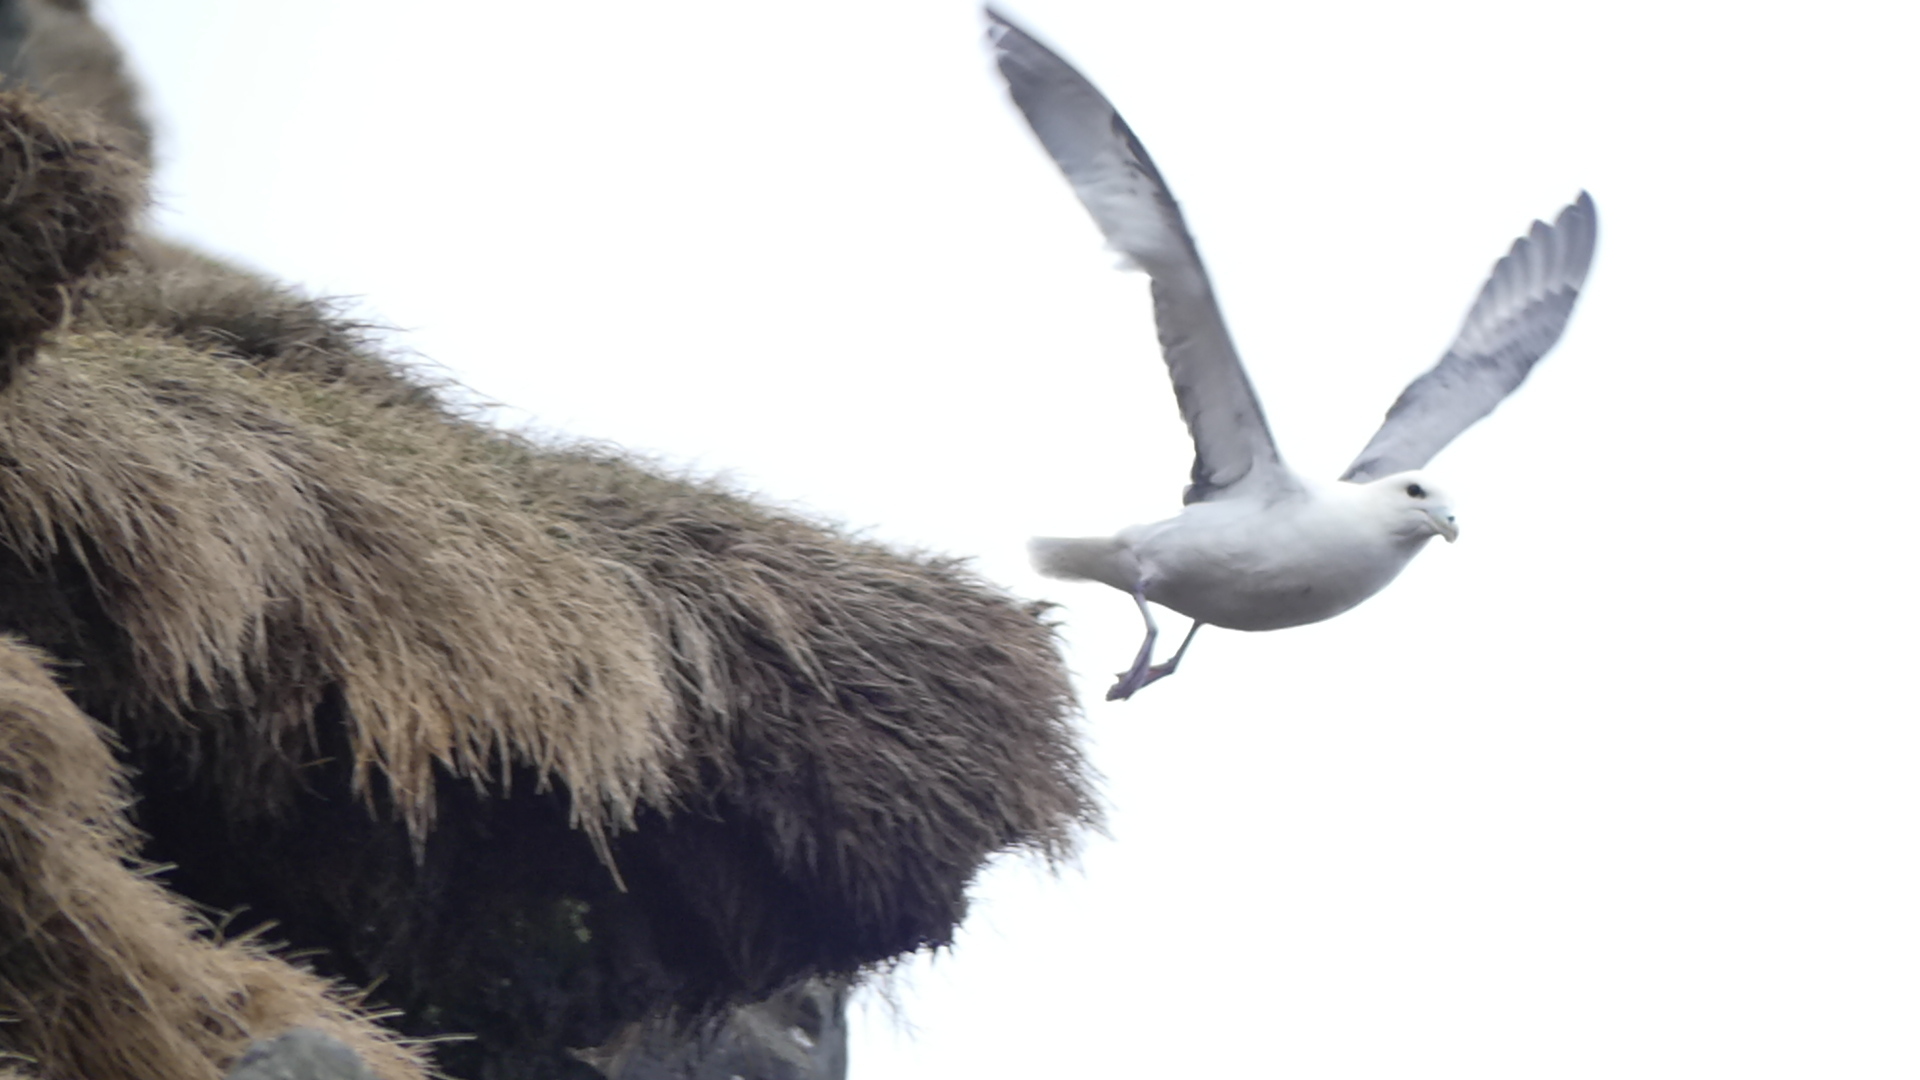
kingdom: Animalia
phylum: Chordata
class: Aves
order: Procellariiformes
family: Procellariidae
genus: Fulmarus
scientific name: Fulmarus glacialis
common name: Northern fulmar
